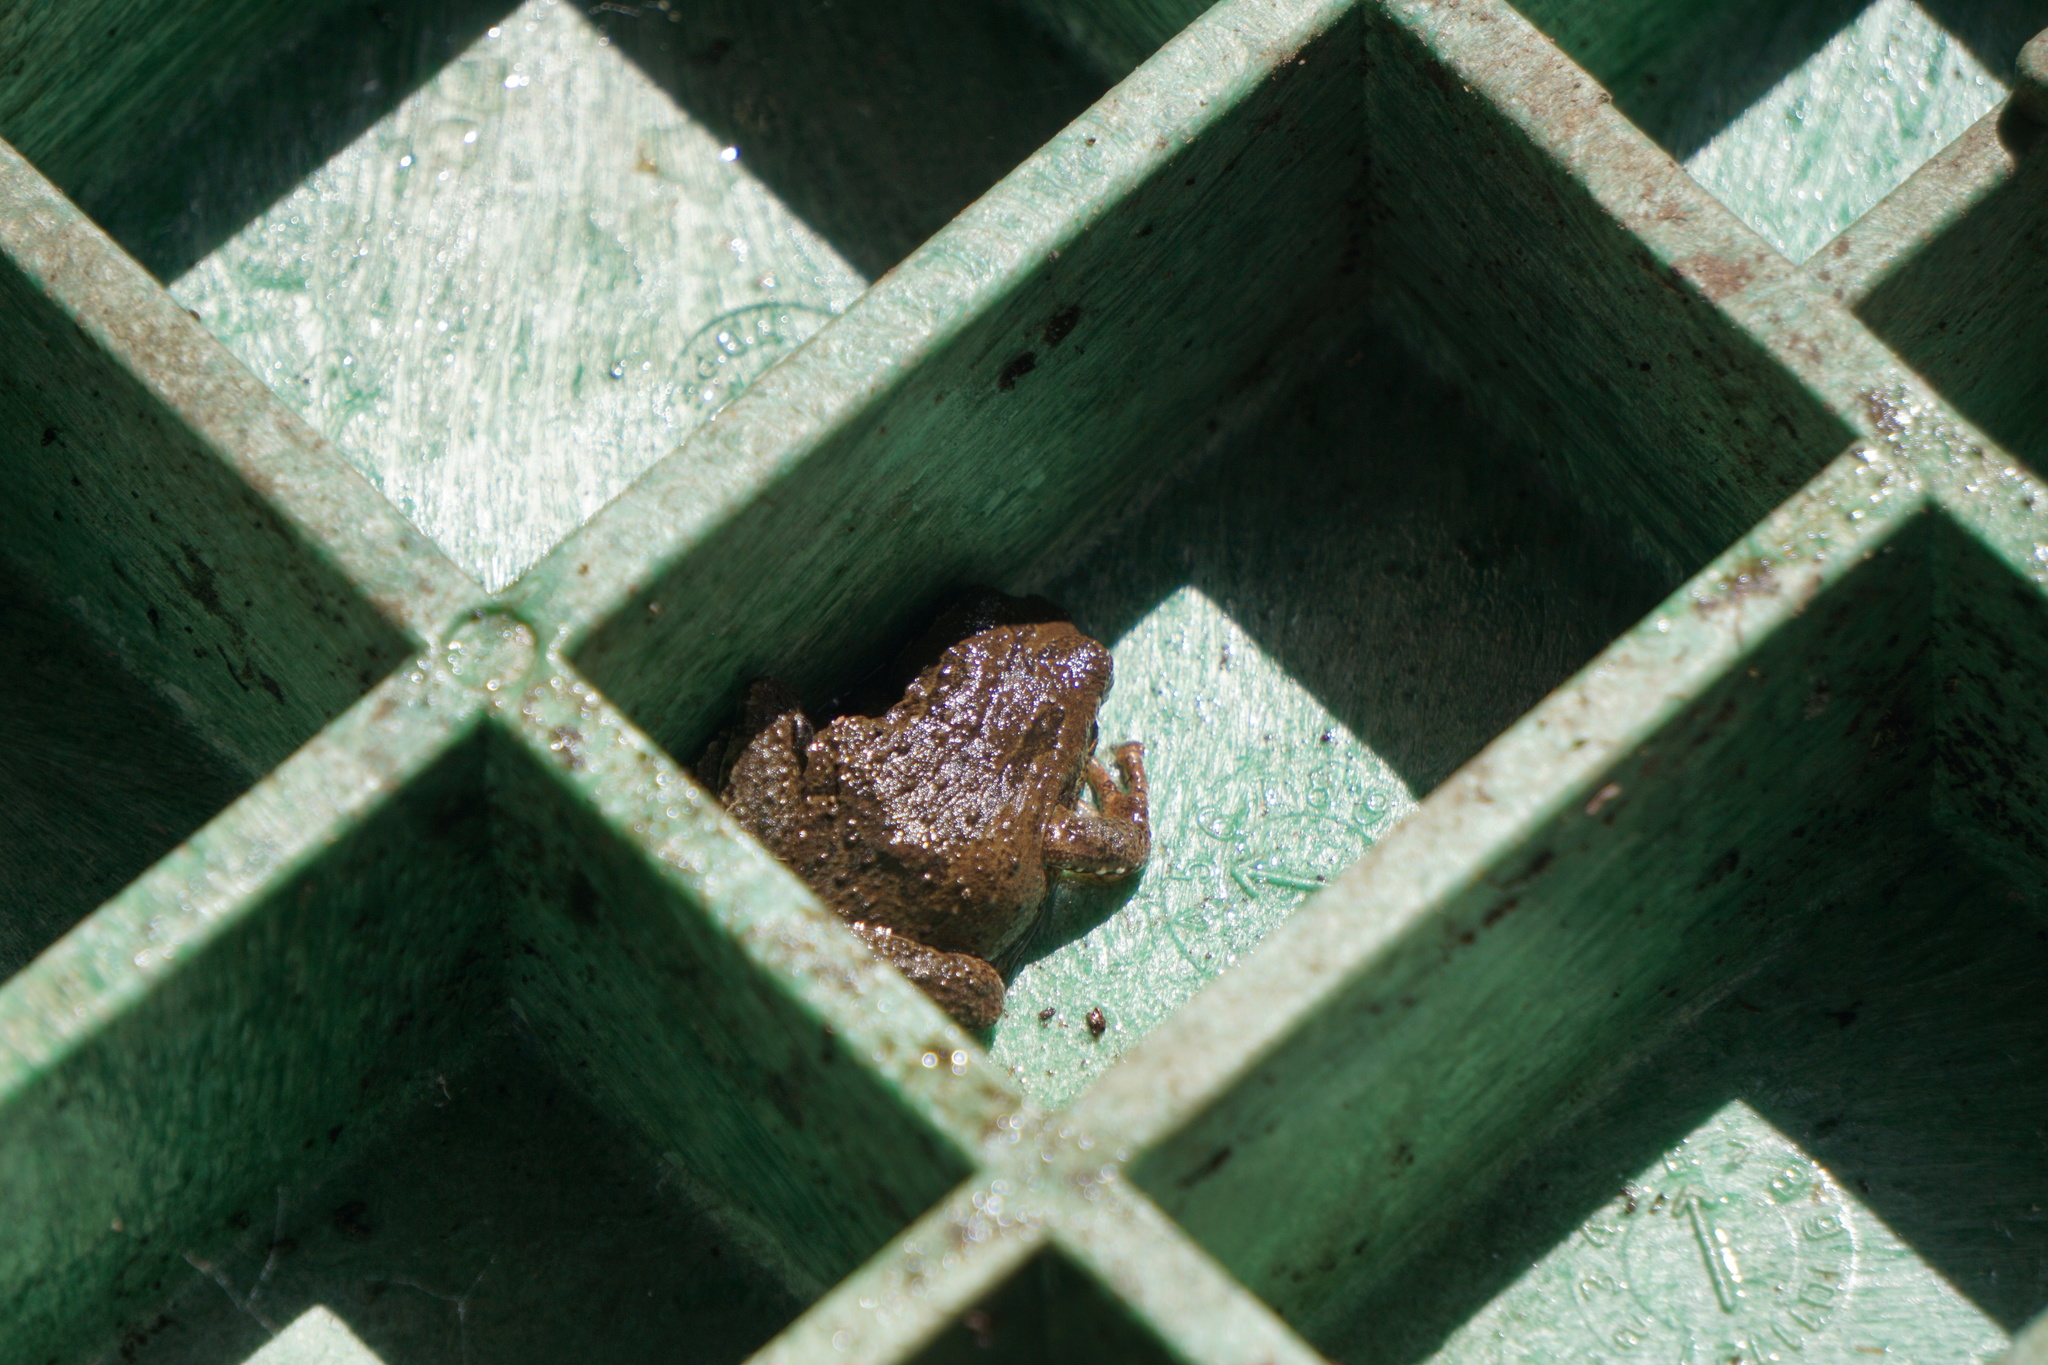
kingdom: Animalia
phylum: Chordata
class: Amphibia
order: Anura
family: Hylidae
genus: Pseudacris
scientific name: Pseudacris regilla
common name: Pacific chorus frog
